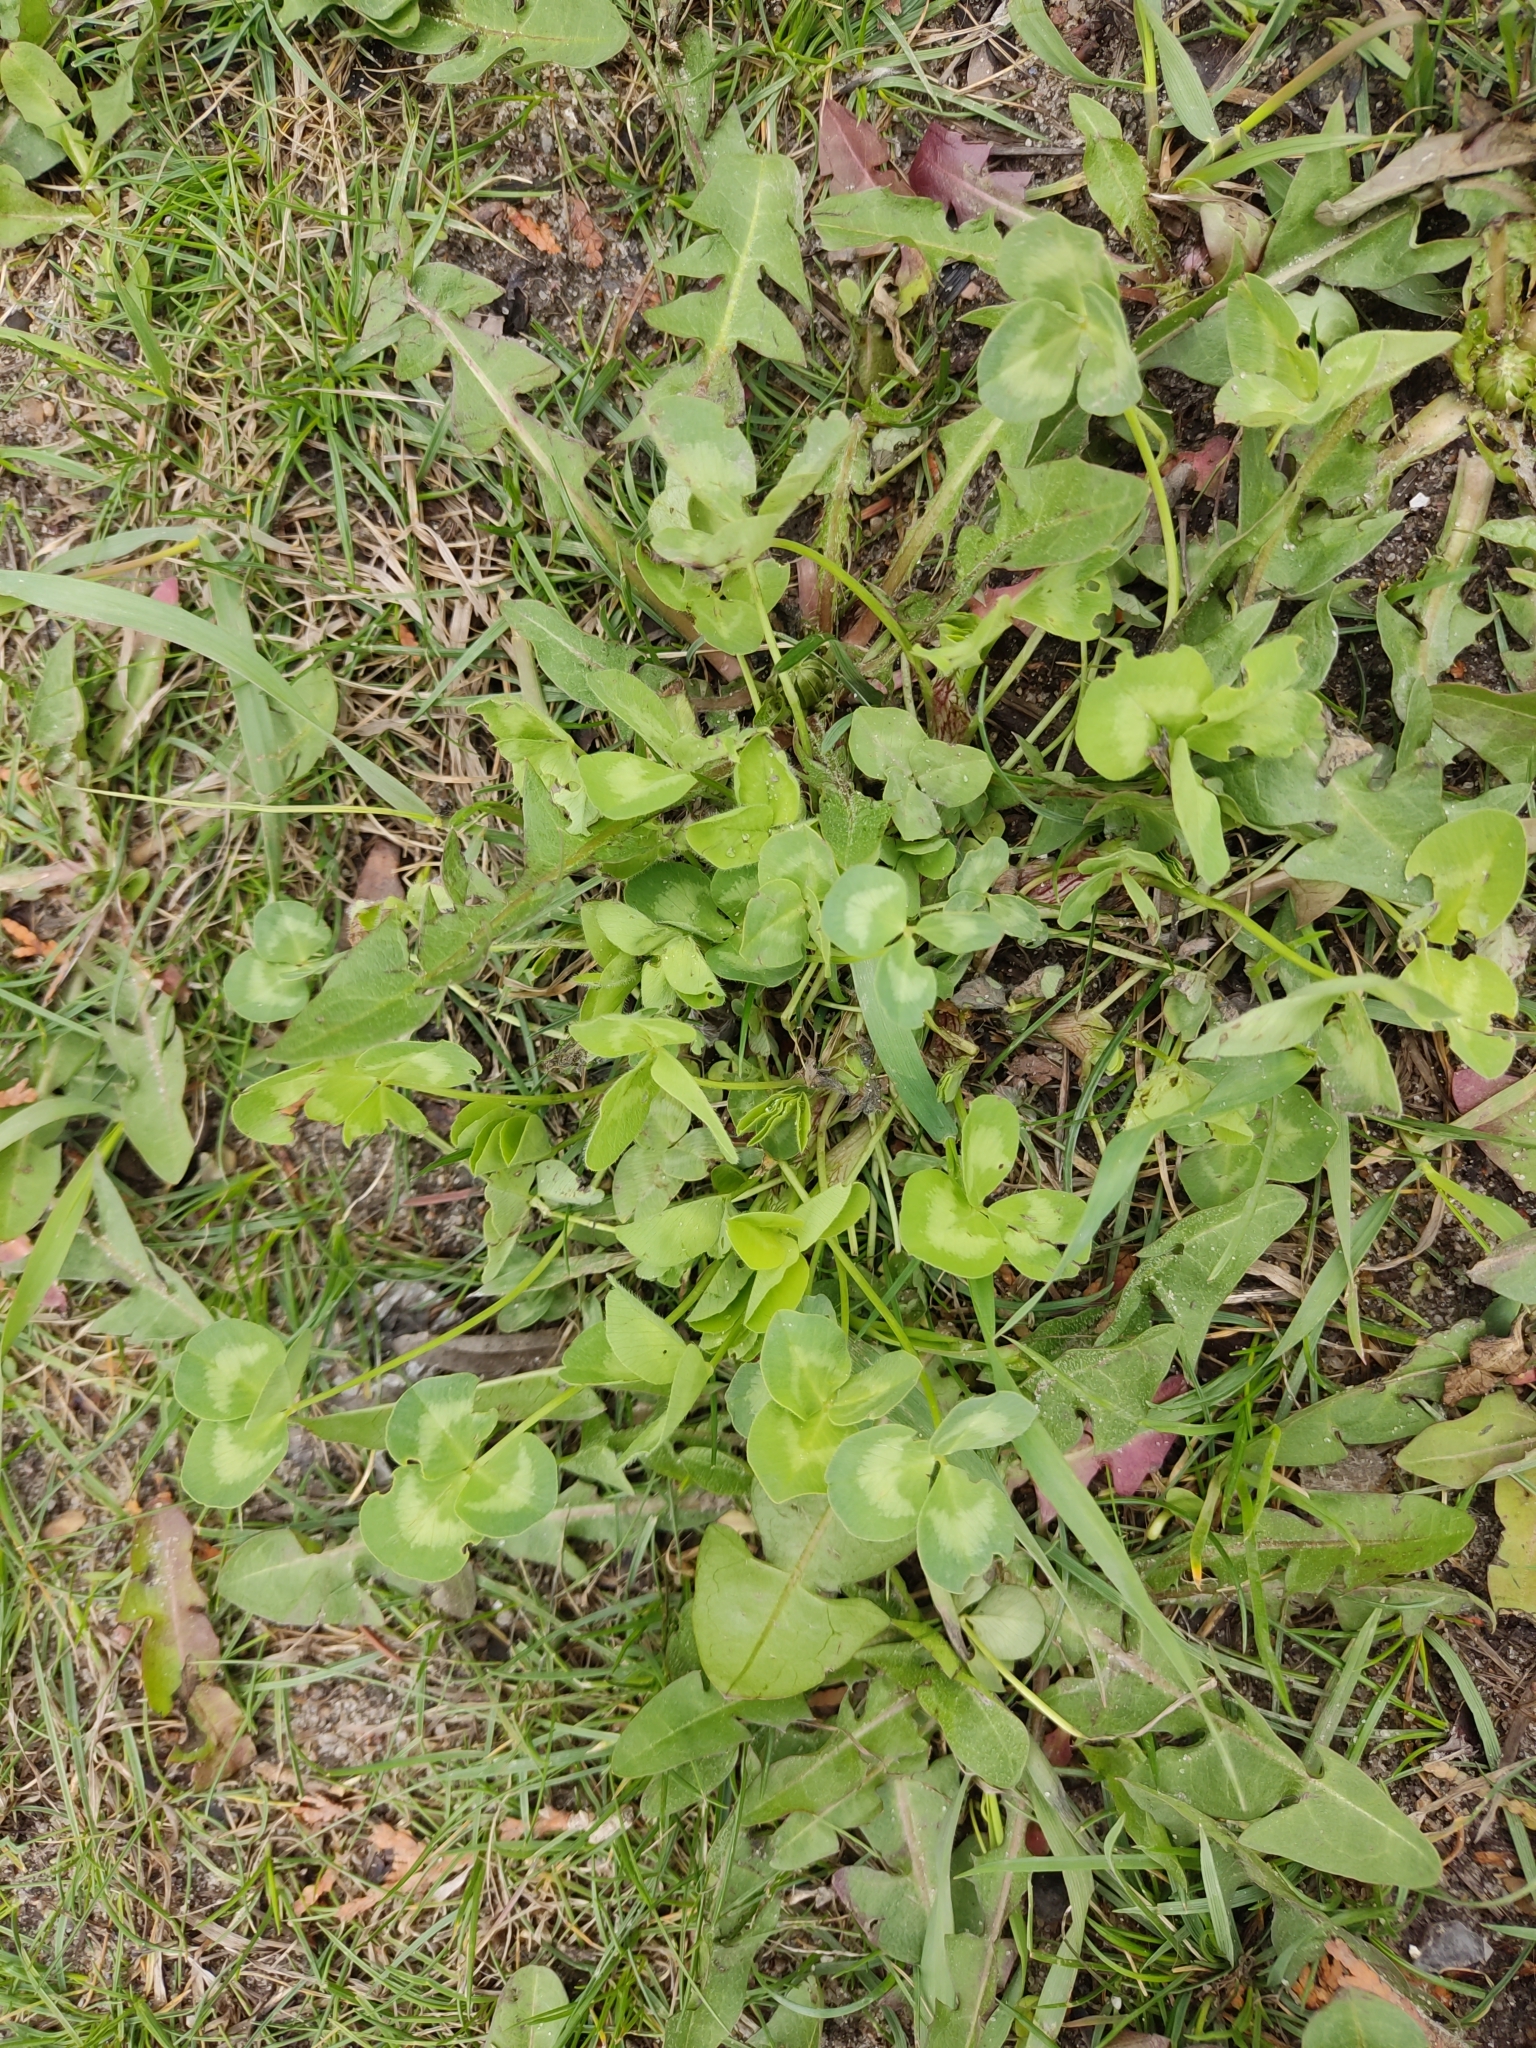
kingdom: Plantae
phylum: Tracheophyta
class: Magnoliopsida
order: Fabales
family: Fabaceae
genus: Trifolium
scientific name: Trifolium repens
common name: White clover
